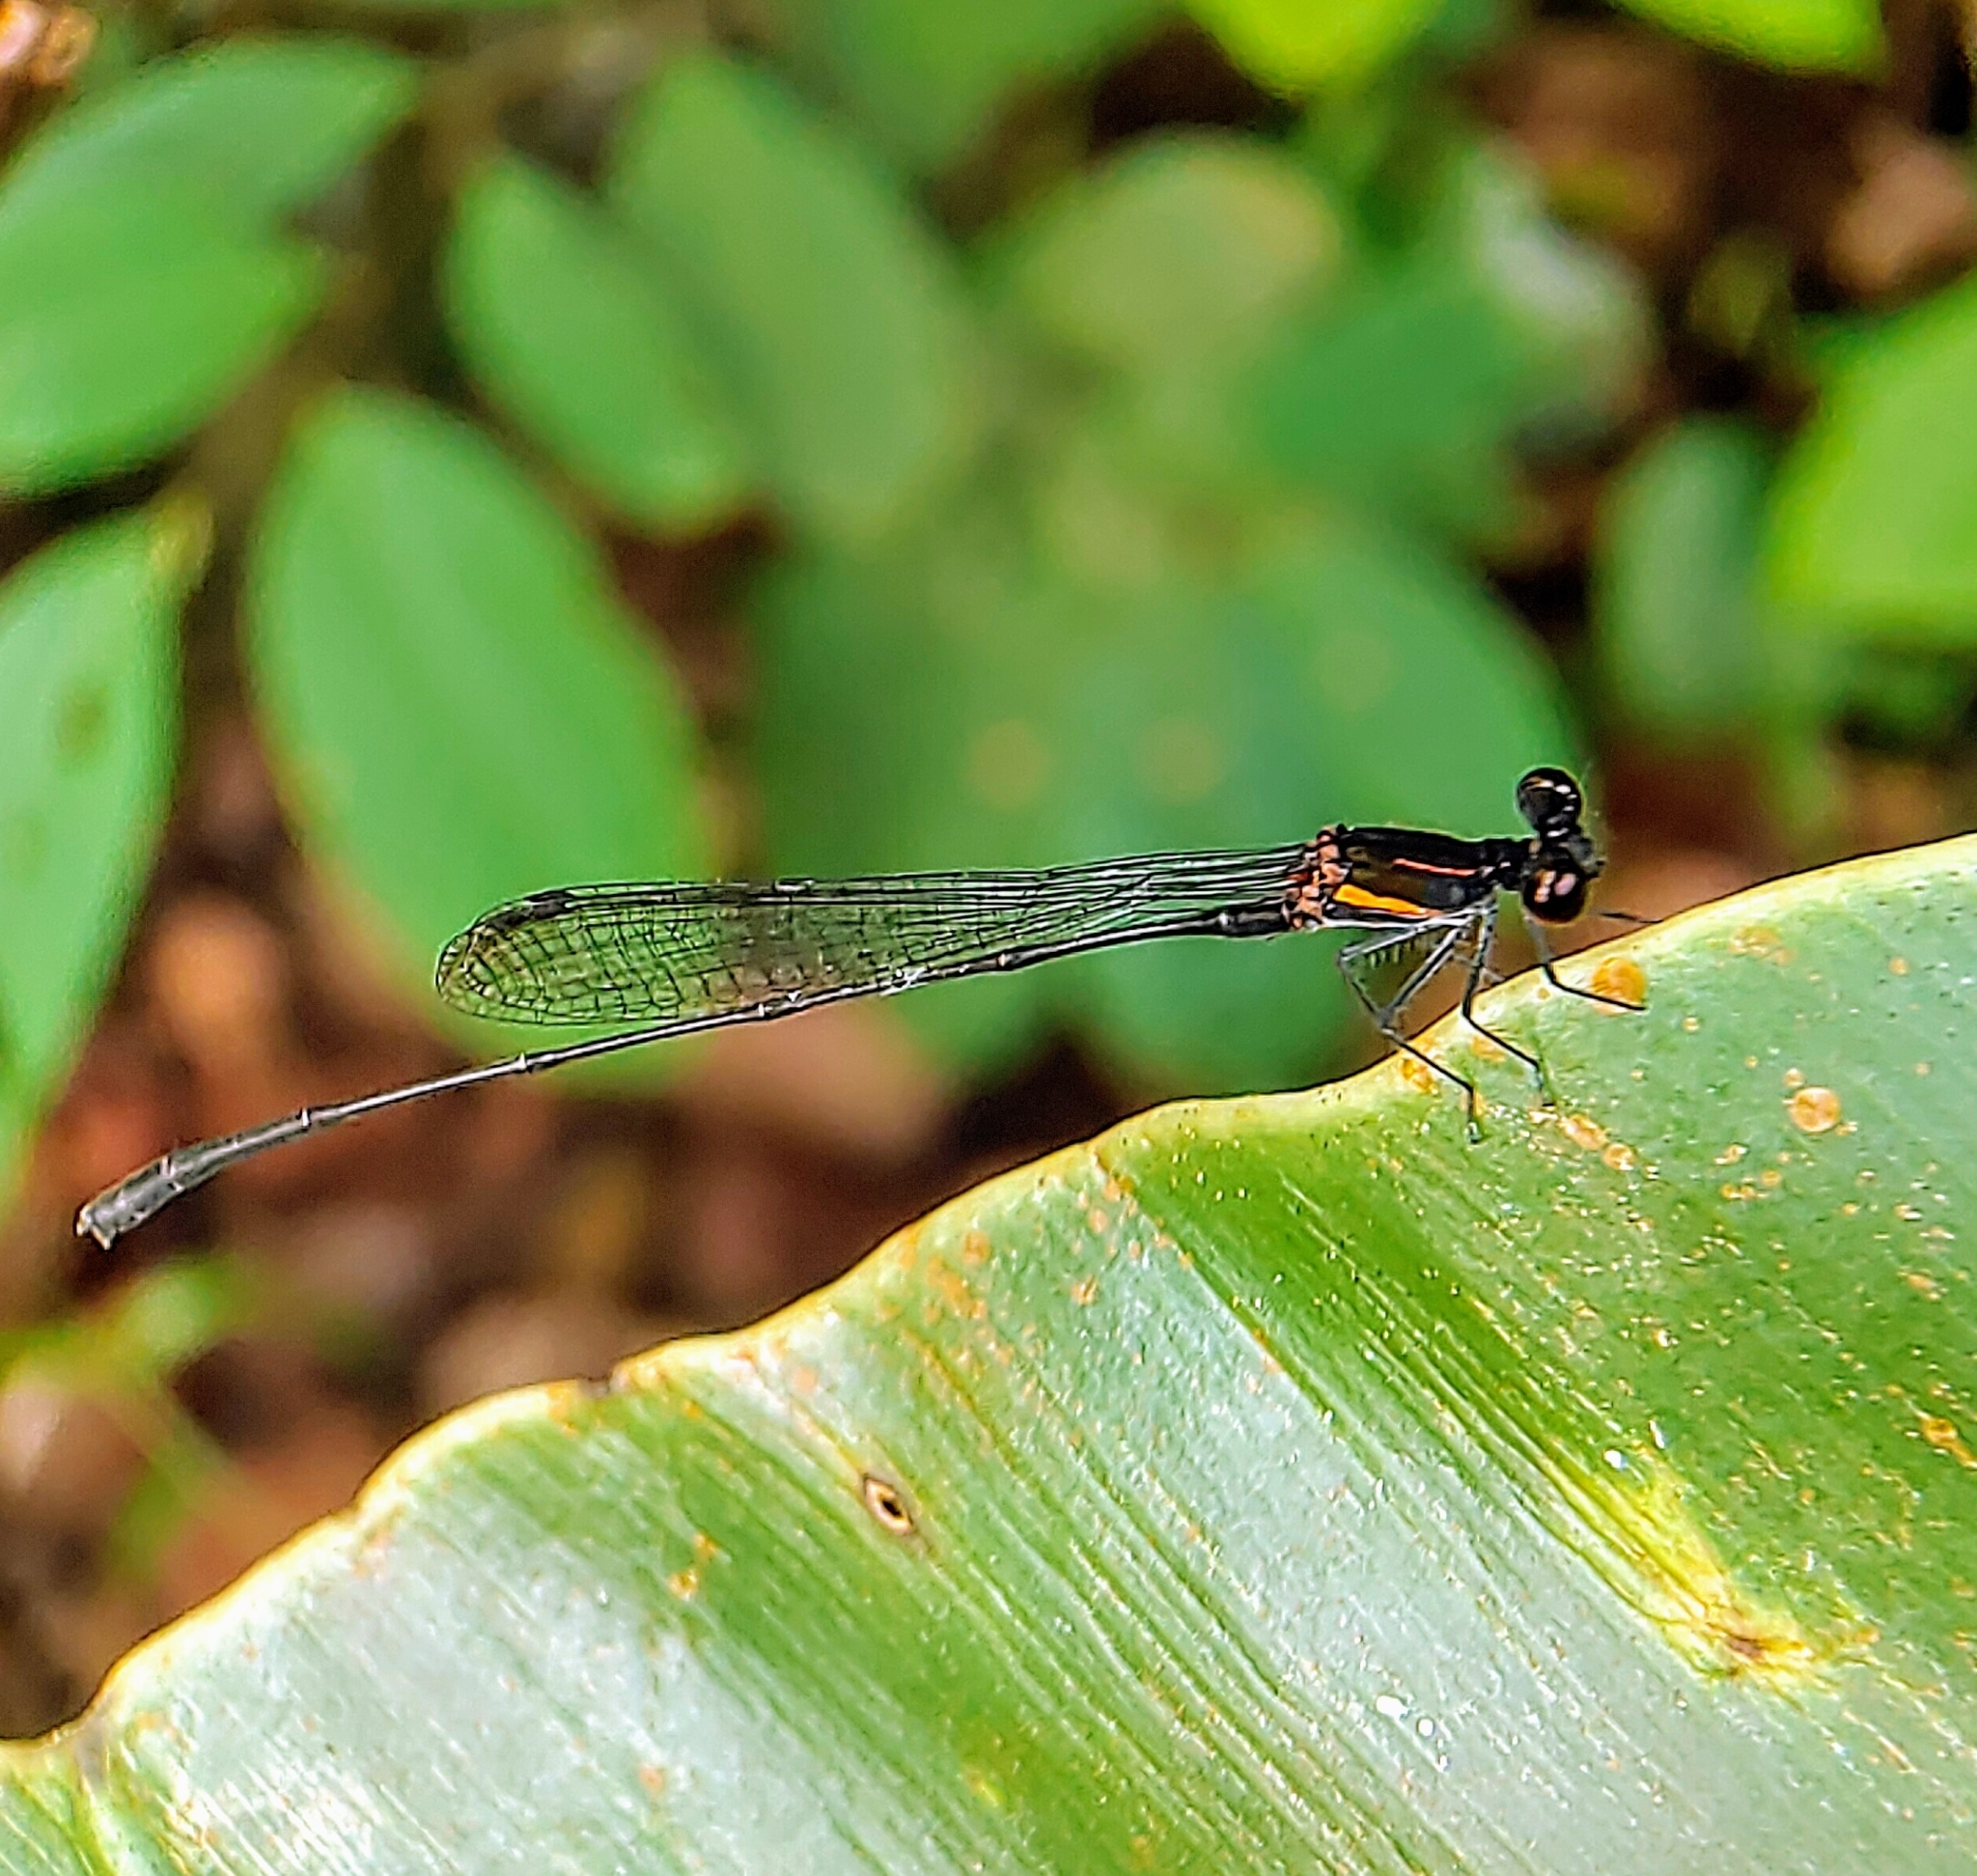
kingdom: Animalia
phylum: Arthropoda
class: Insecta
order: Odonata
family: Platycnemididae
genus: Prodasineura
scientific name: Prodasineura verticalis
